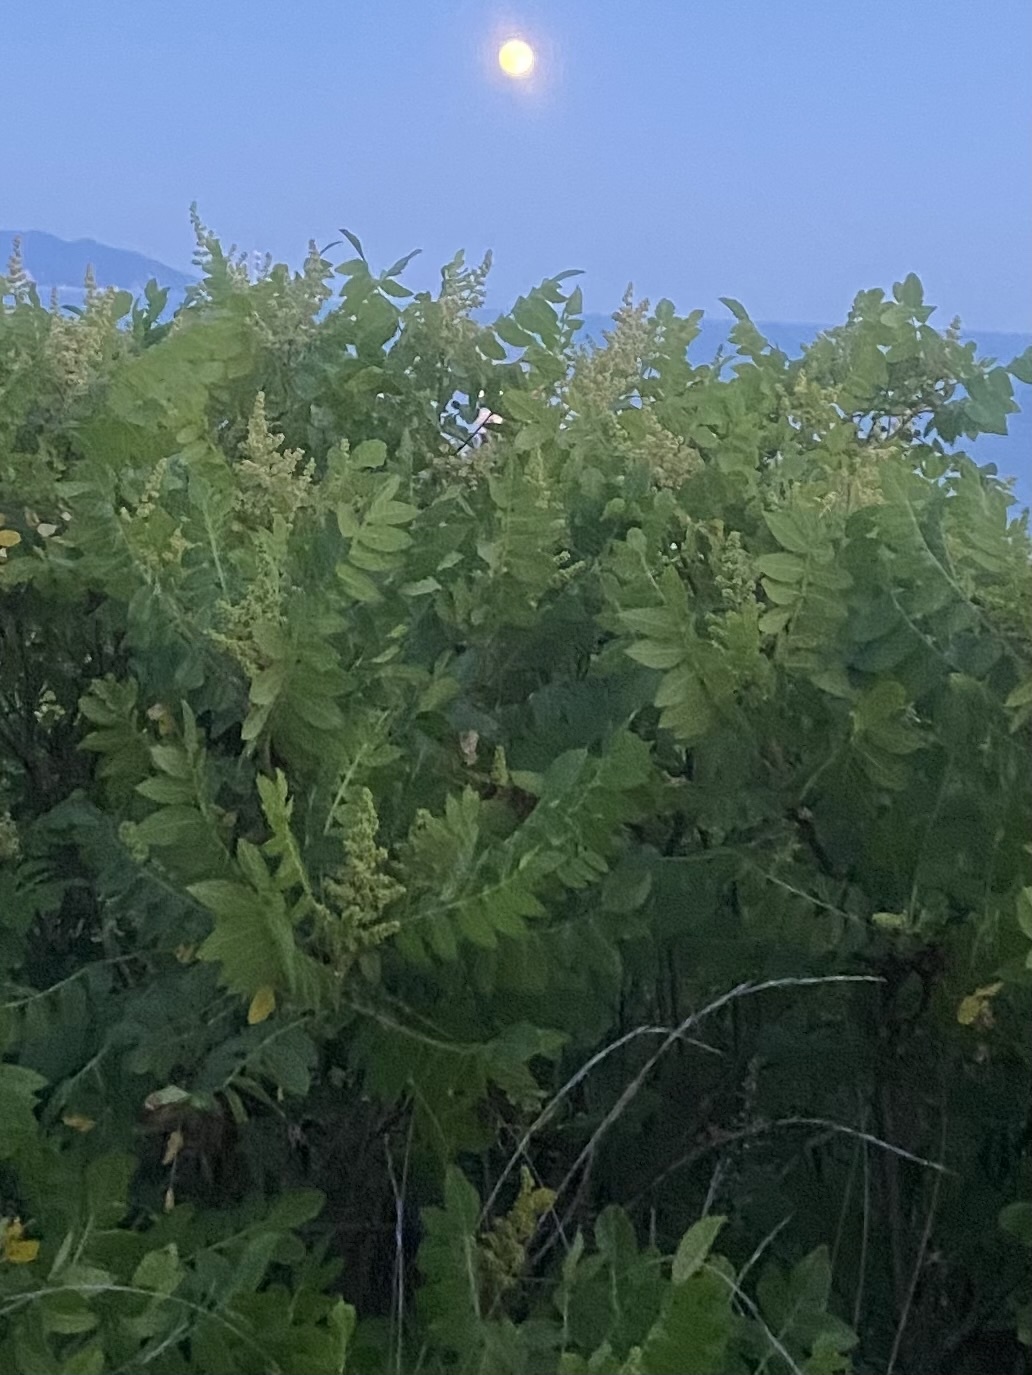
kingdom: Plantae
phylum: Tracheophyta
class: Magnoliopsida
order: Sapindales
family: Anacardiaceae
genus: Rhus
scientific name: Rhus coriaria
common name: Tanner's sumach
